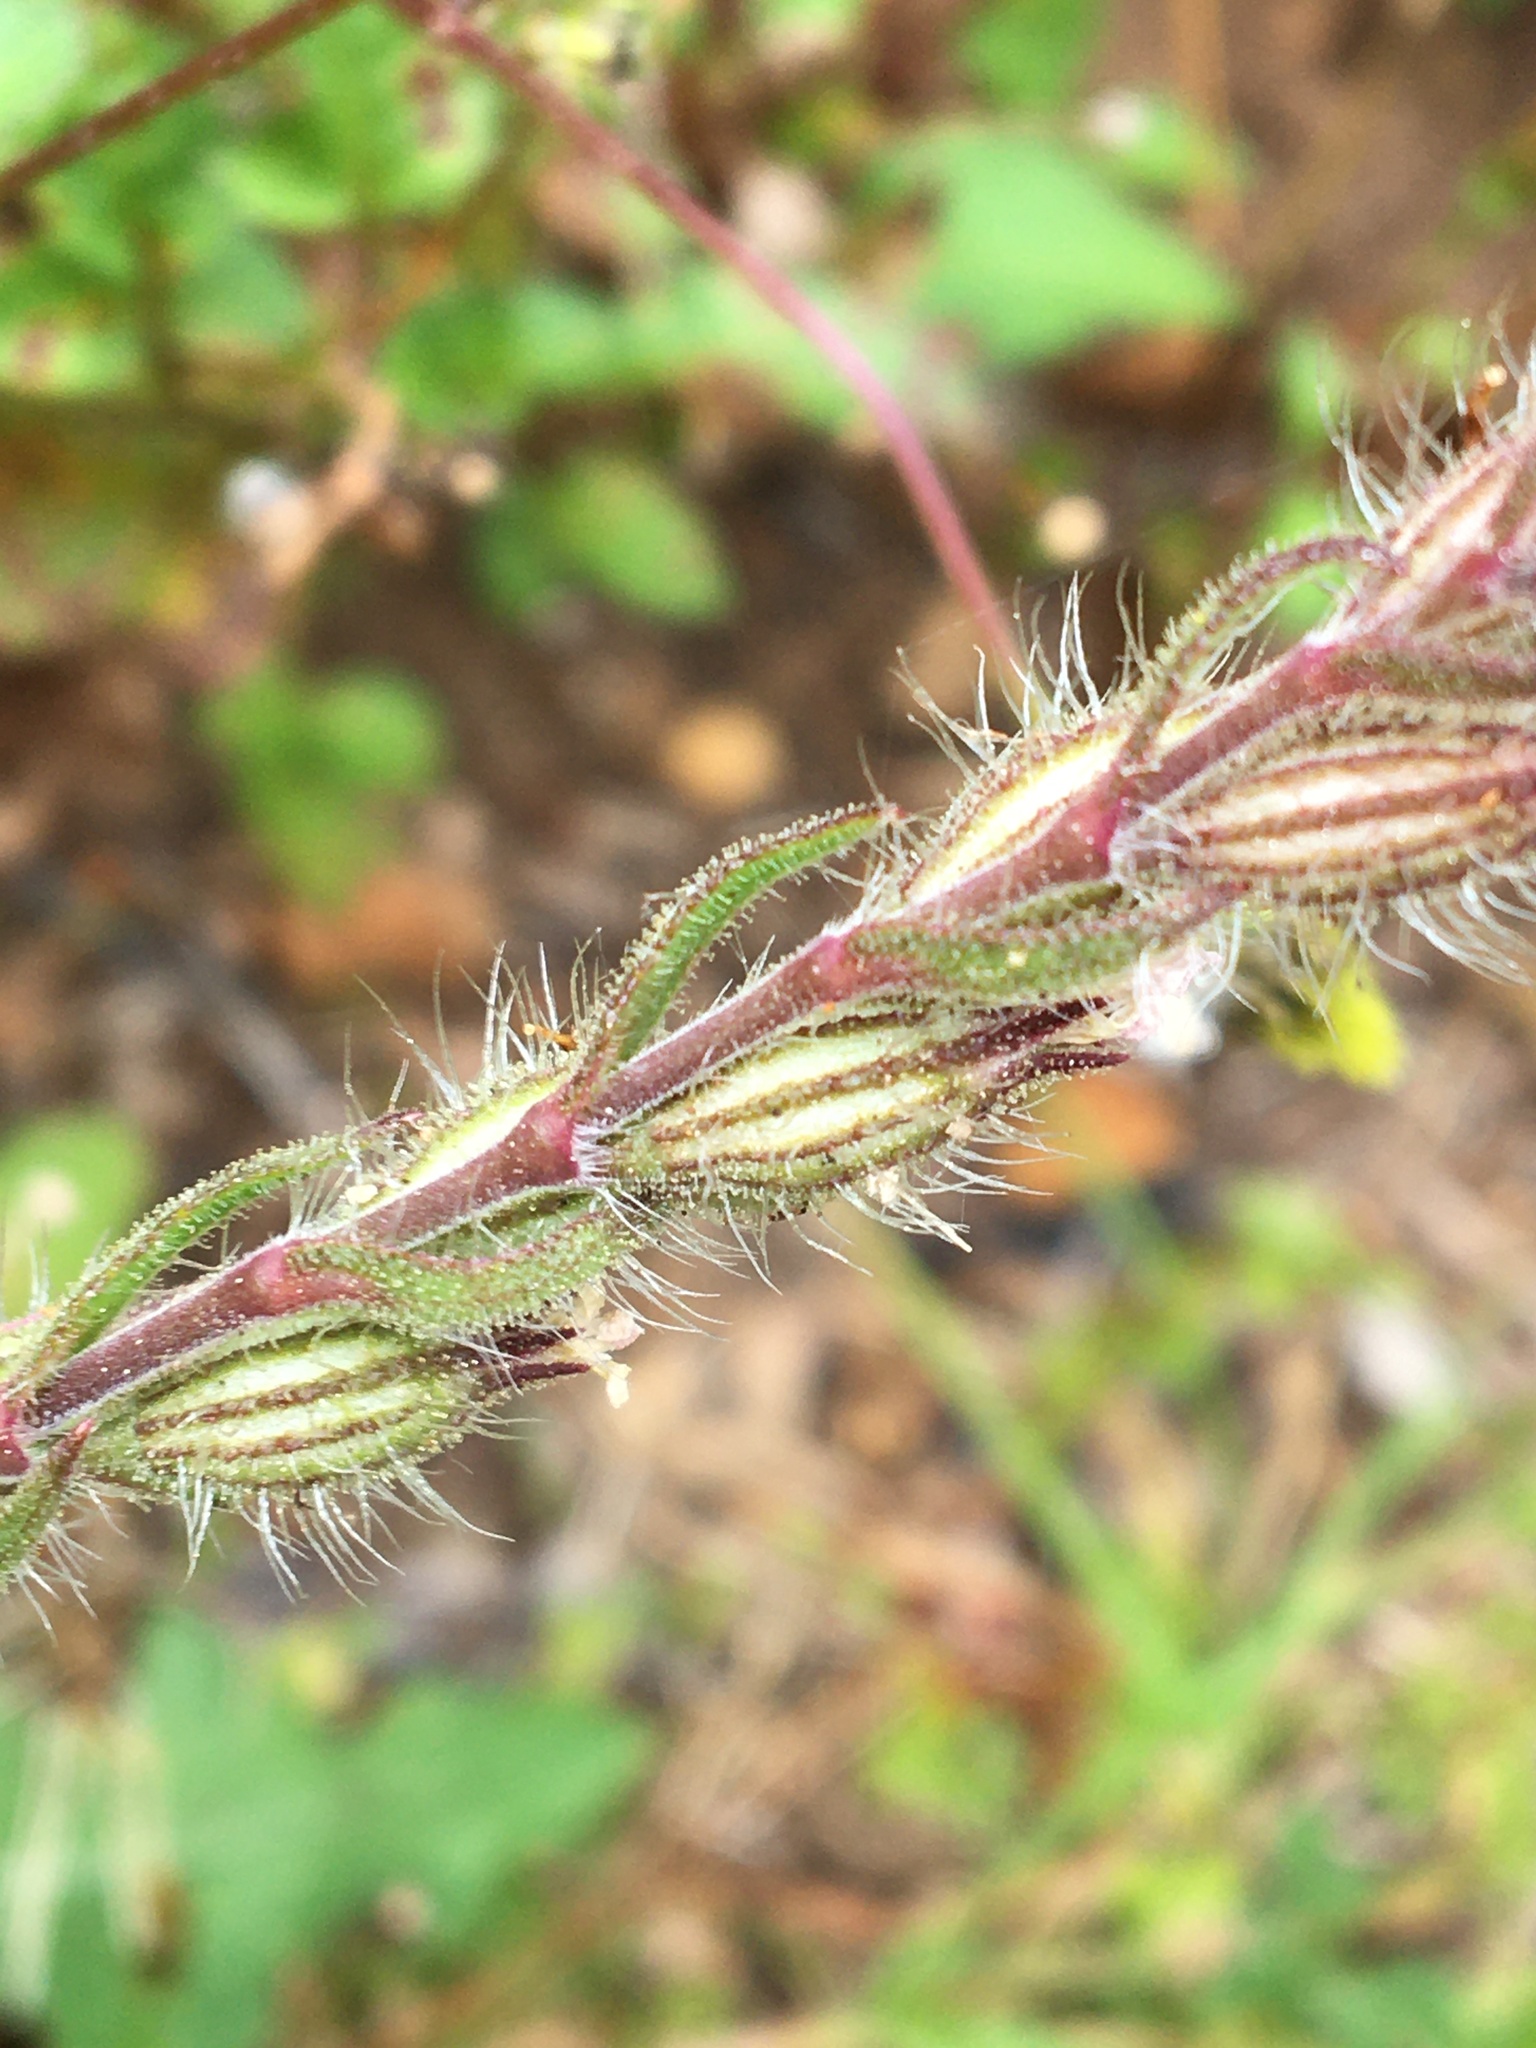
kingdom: Plantae
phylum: Tracheophyta
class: Magnoliopsida
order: Caryophyllales
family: Caryophyllaceae
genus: Silene
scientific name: Silene gallica
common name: Small-flowered catchfly
